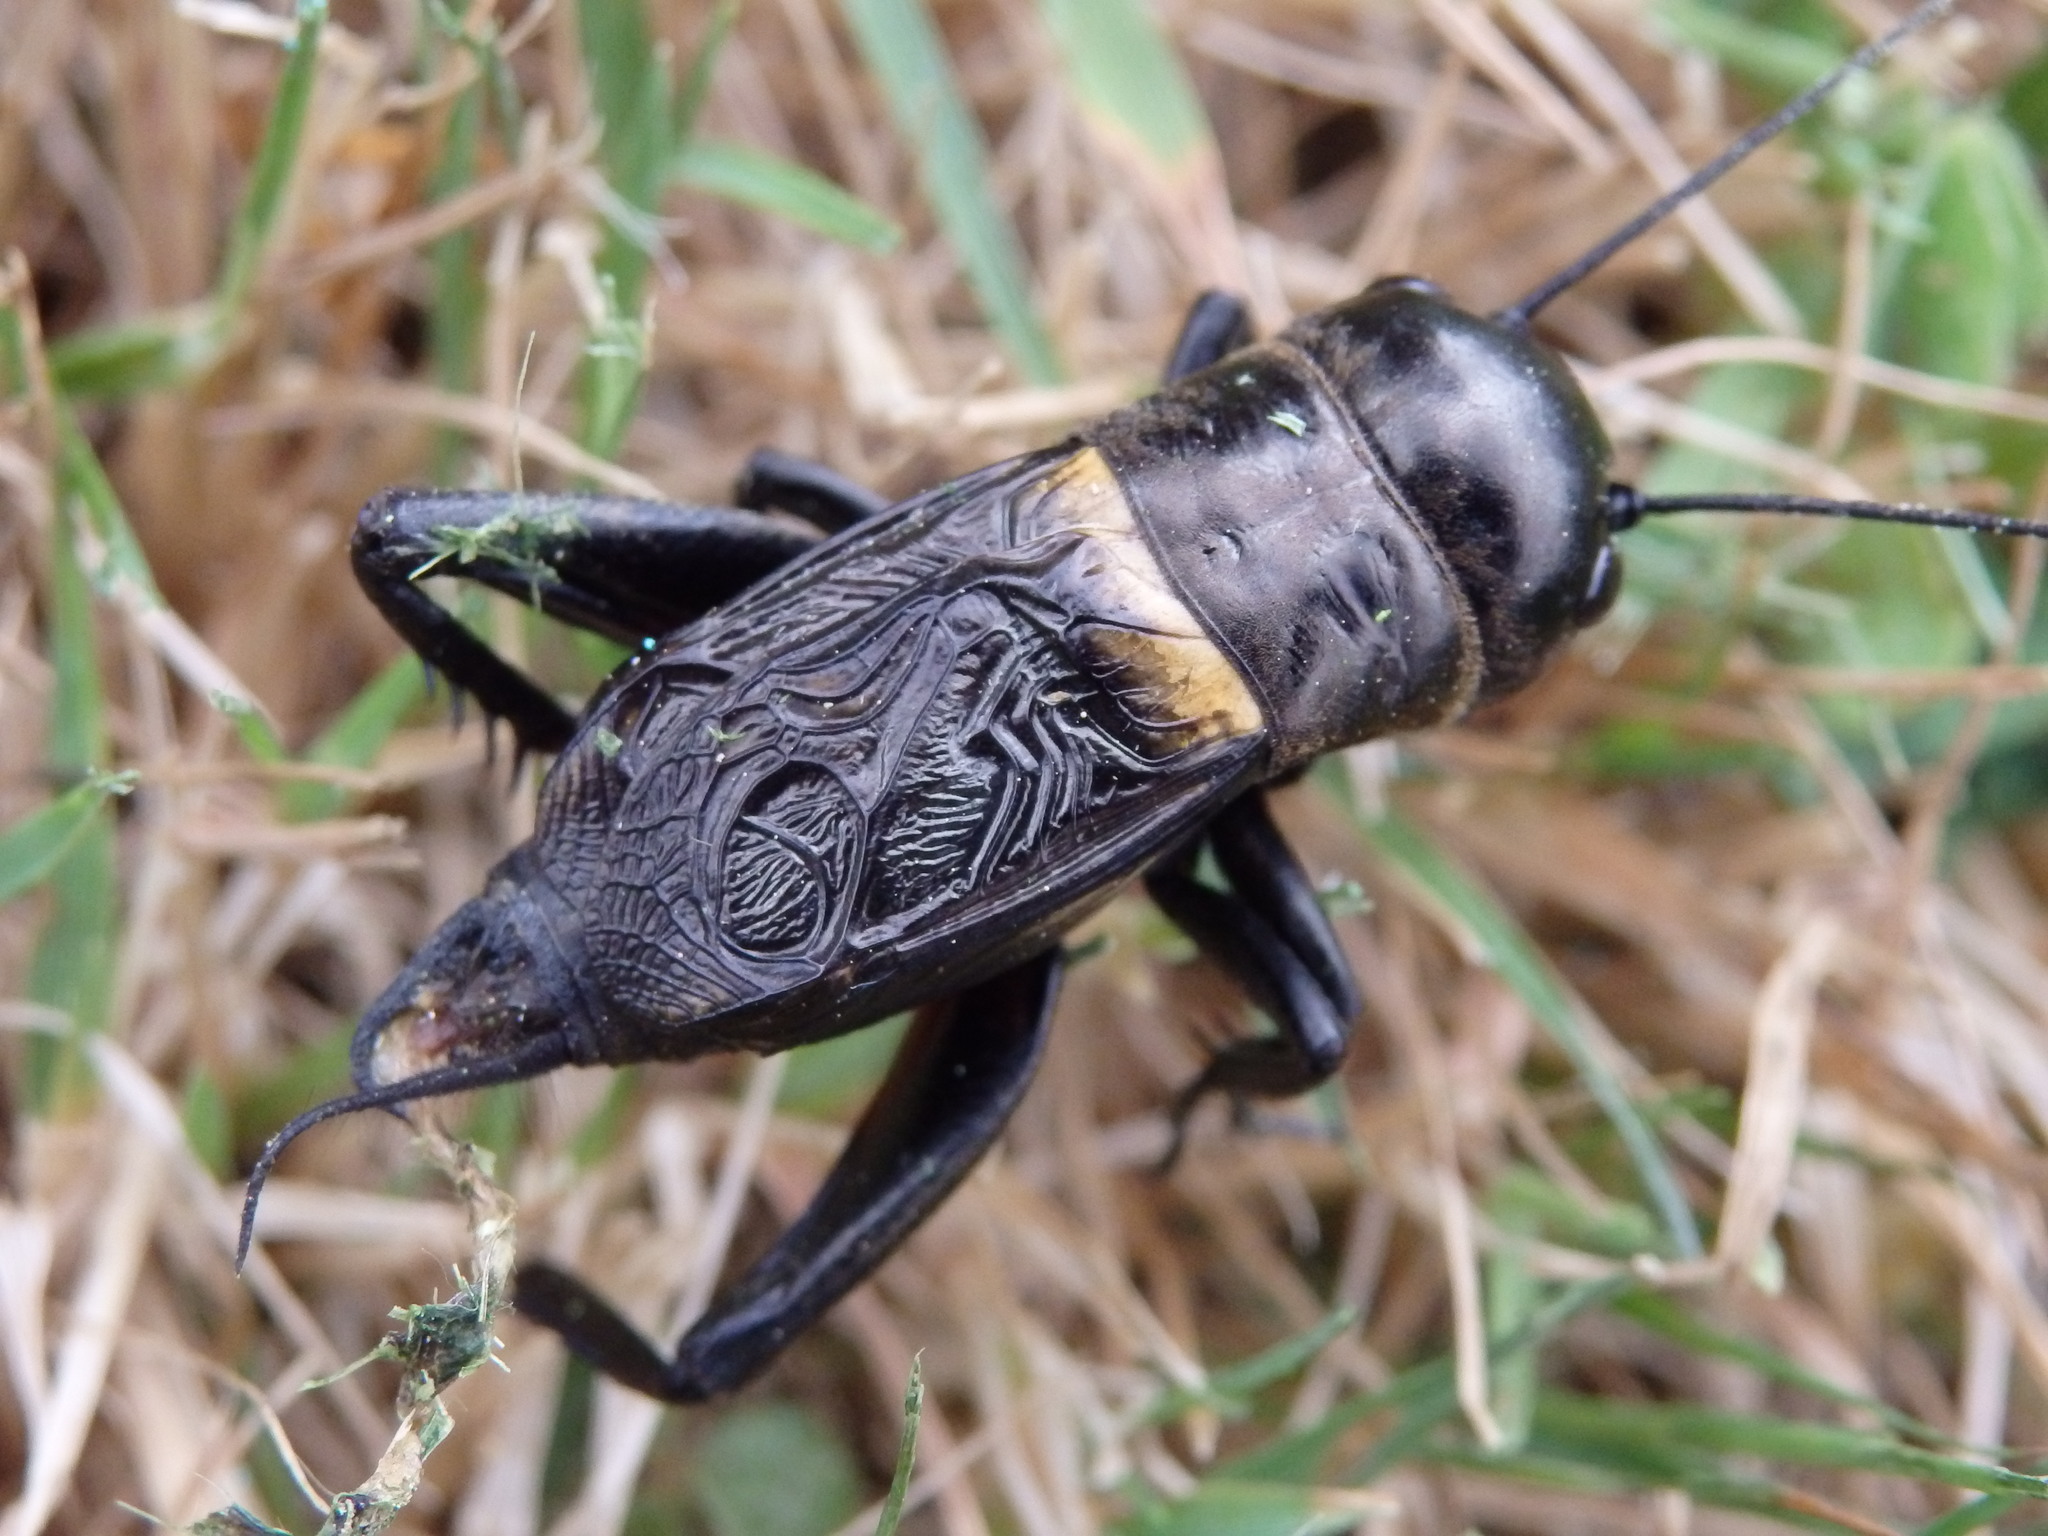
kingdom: Animalia
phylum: Arthropoda
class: Insecta
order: Orthoptera
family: Gryllidae
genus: Gryllus
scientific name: Gryllus campestris
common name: Field cricket
